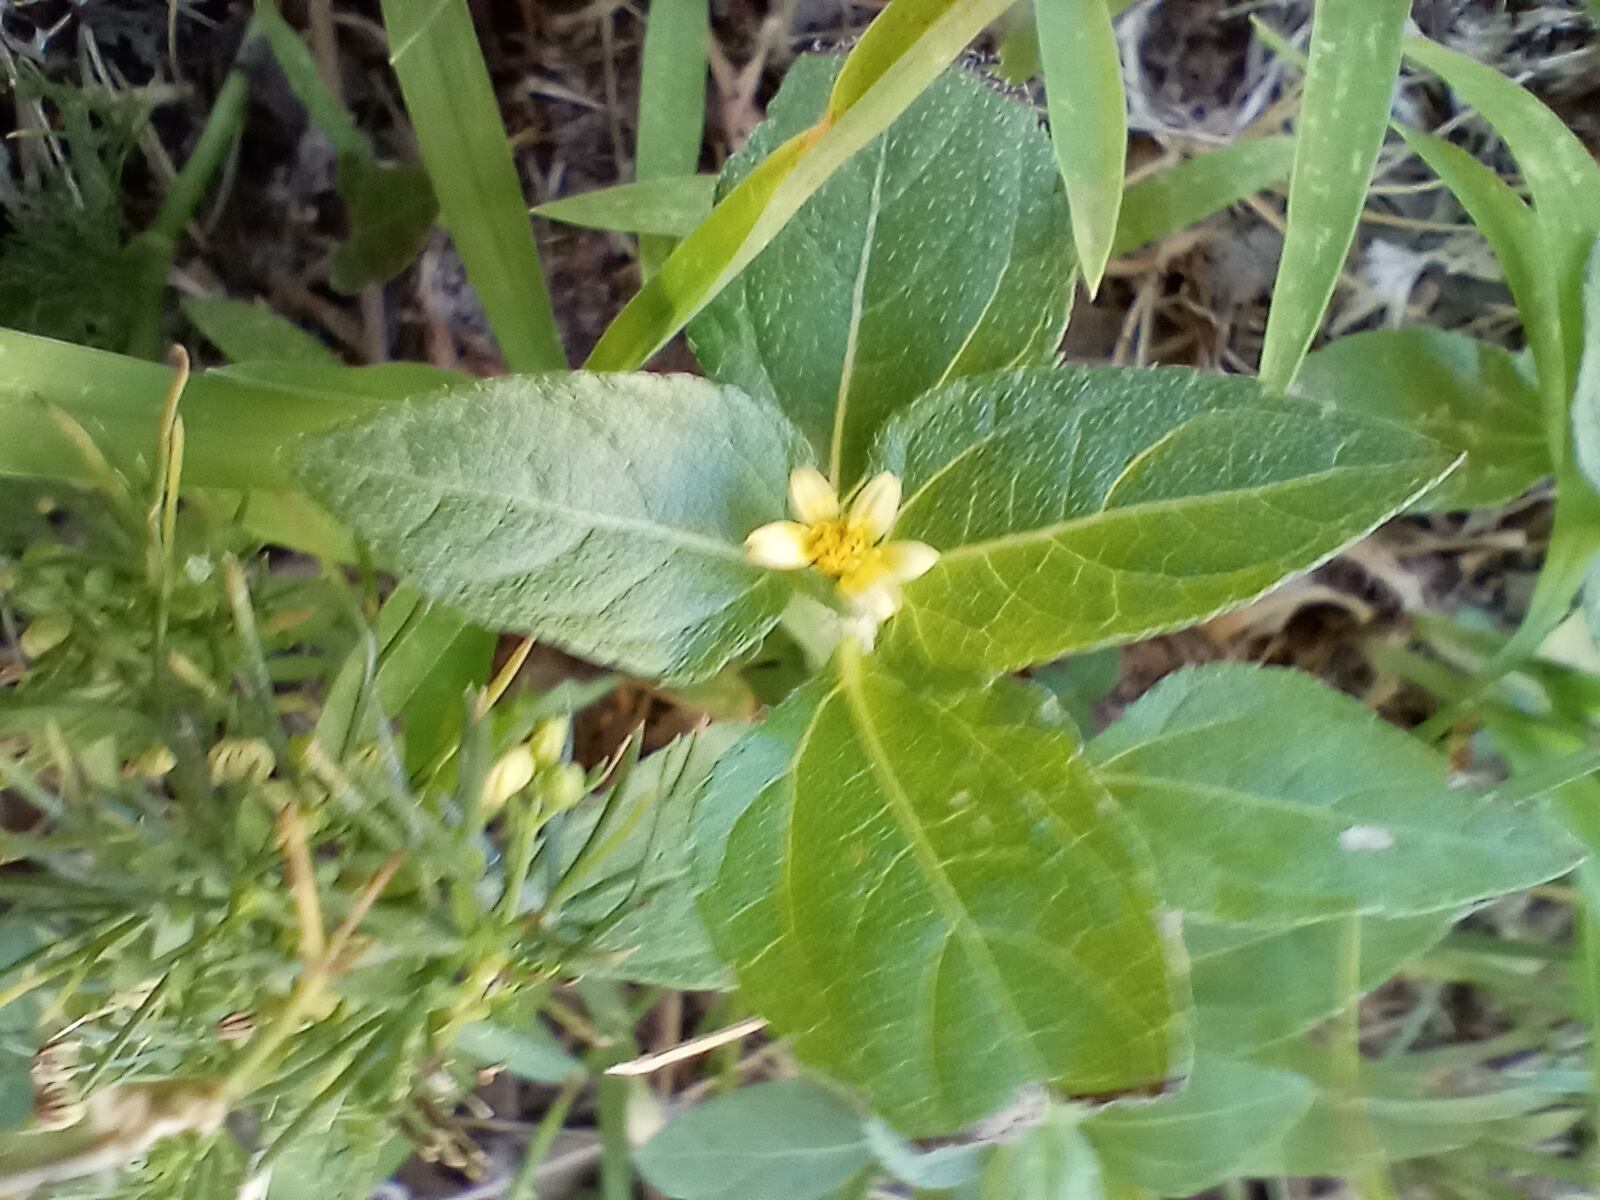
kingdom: Plantae
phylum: Tracheophyta
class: Magnoliopsida
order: Asterales
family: Asteraceae
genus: Calyptocarpus
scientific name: Calyptocarpus vialis
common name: Straggler daisy
